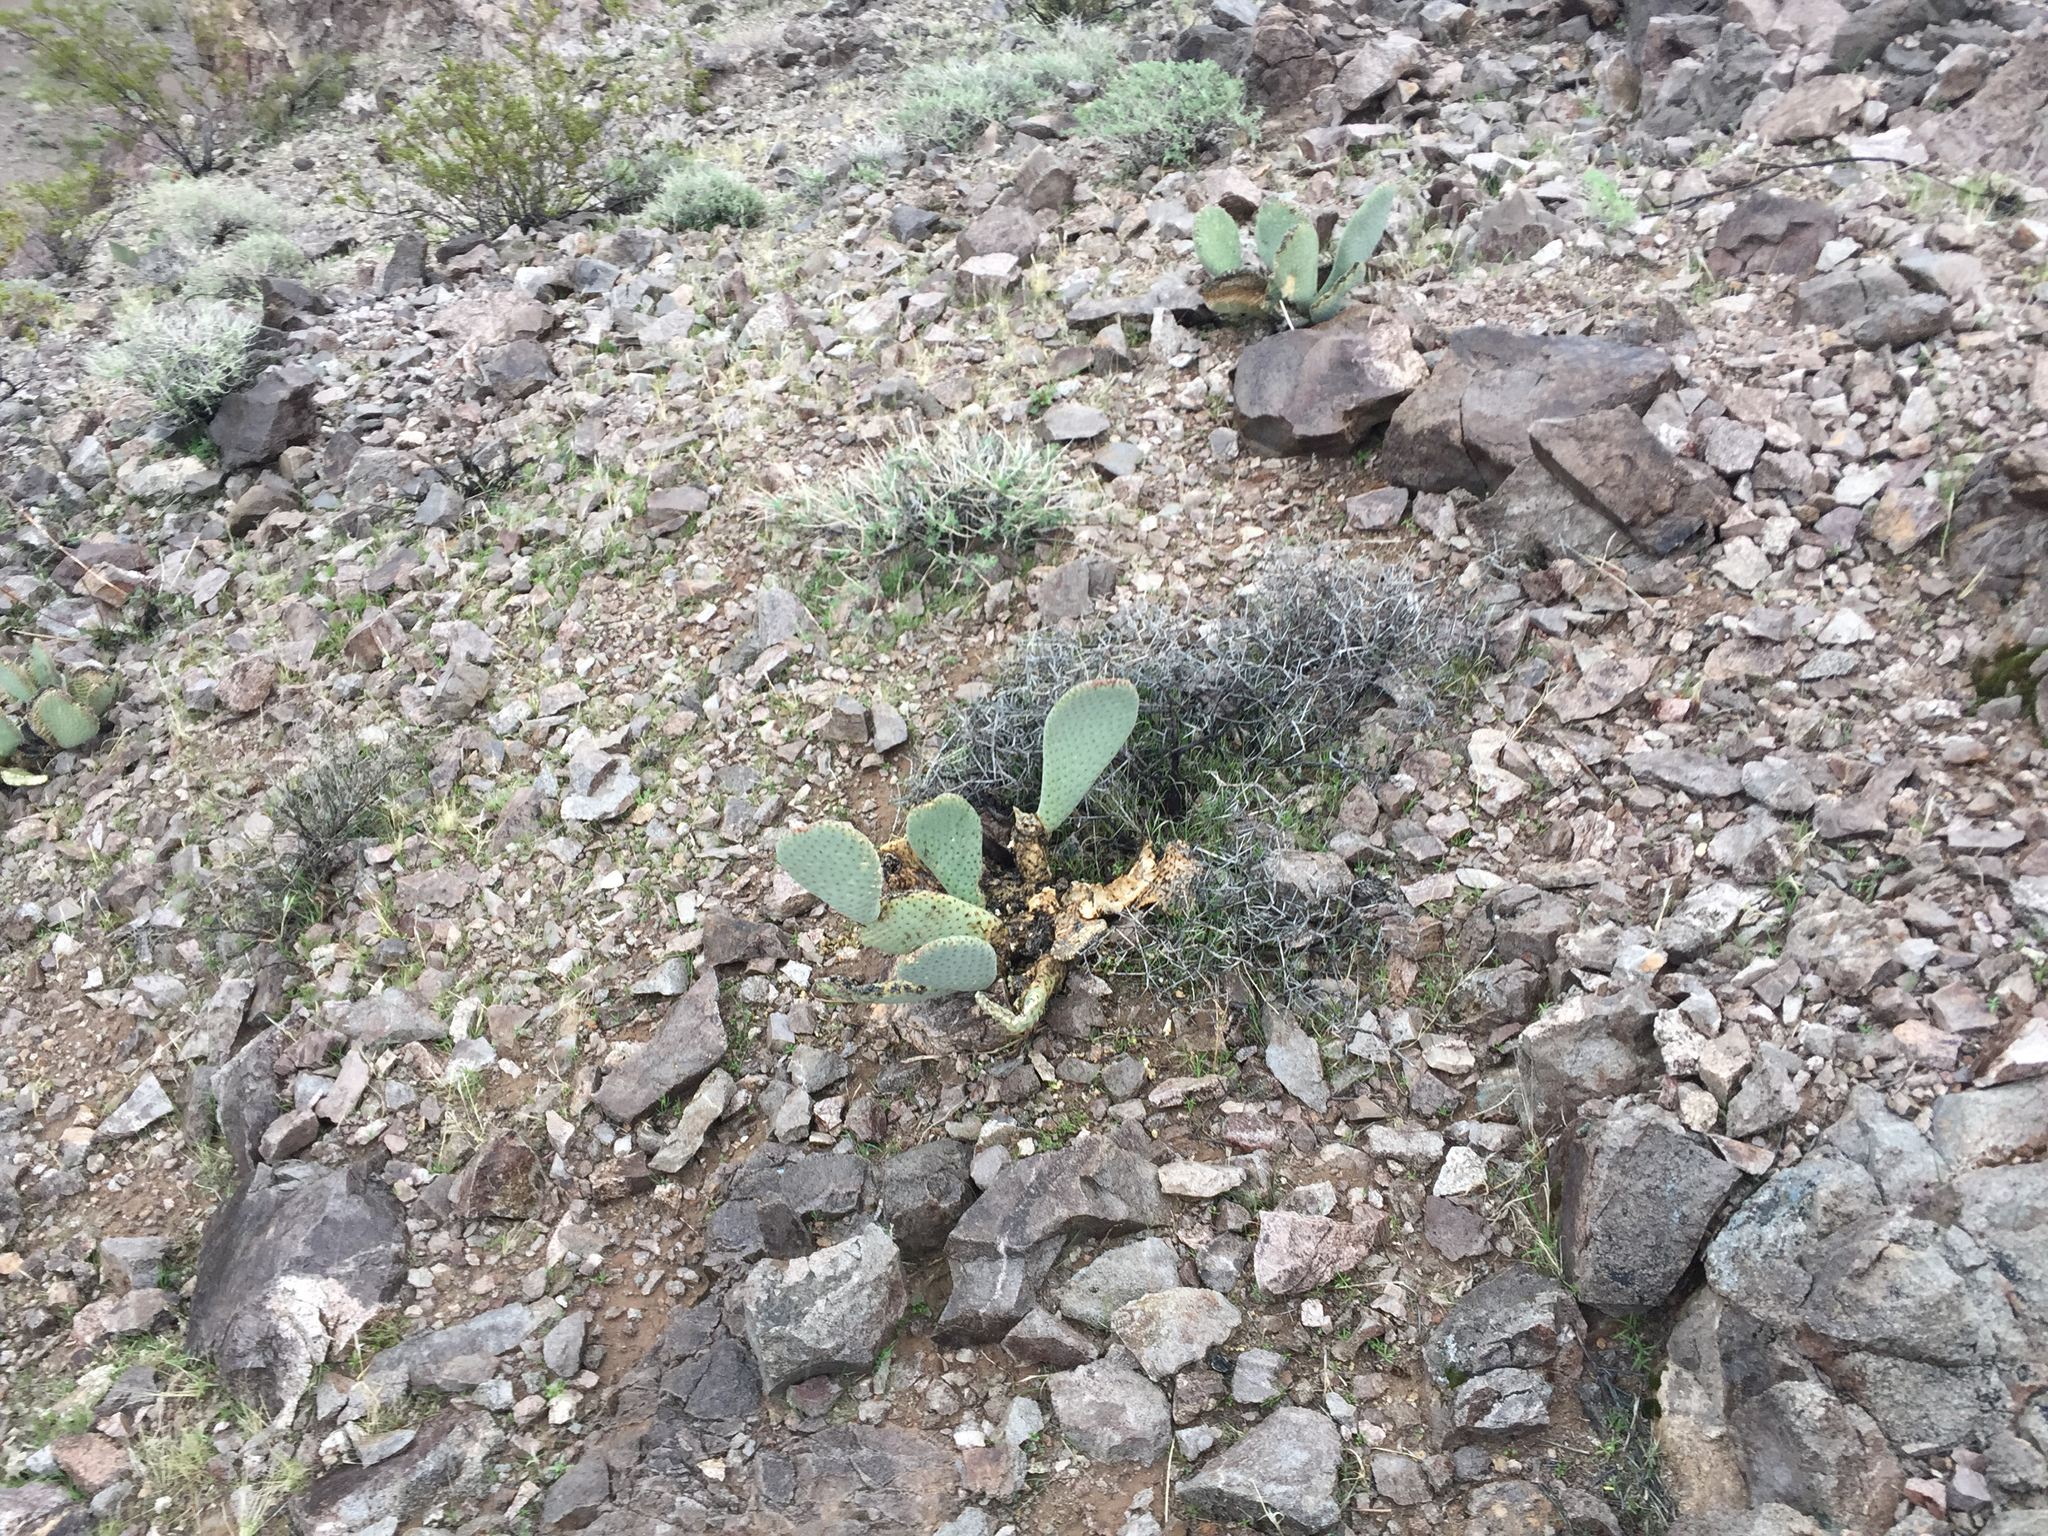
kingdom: Plantae
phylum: Tracheophyta
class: Magnoliopsida
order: Caryophyllales
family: Cactaceae
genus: Opuntia
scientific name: Opuntia basilaris
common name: Beavertail prickly-pear
